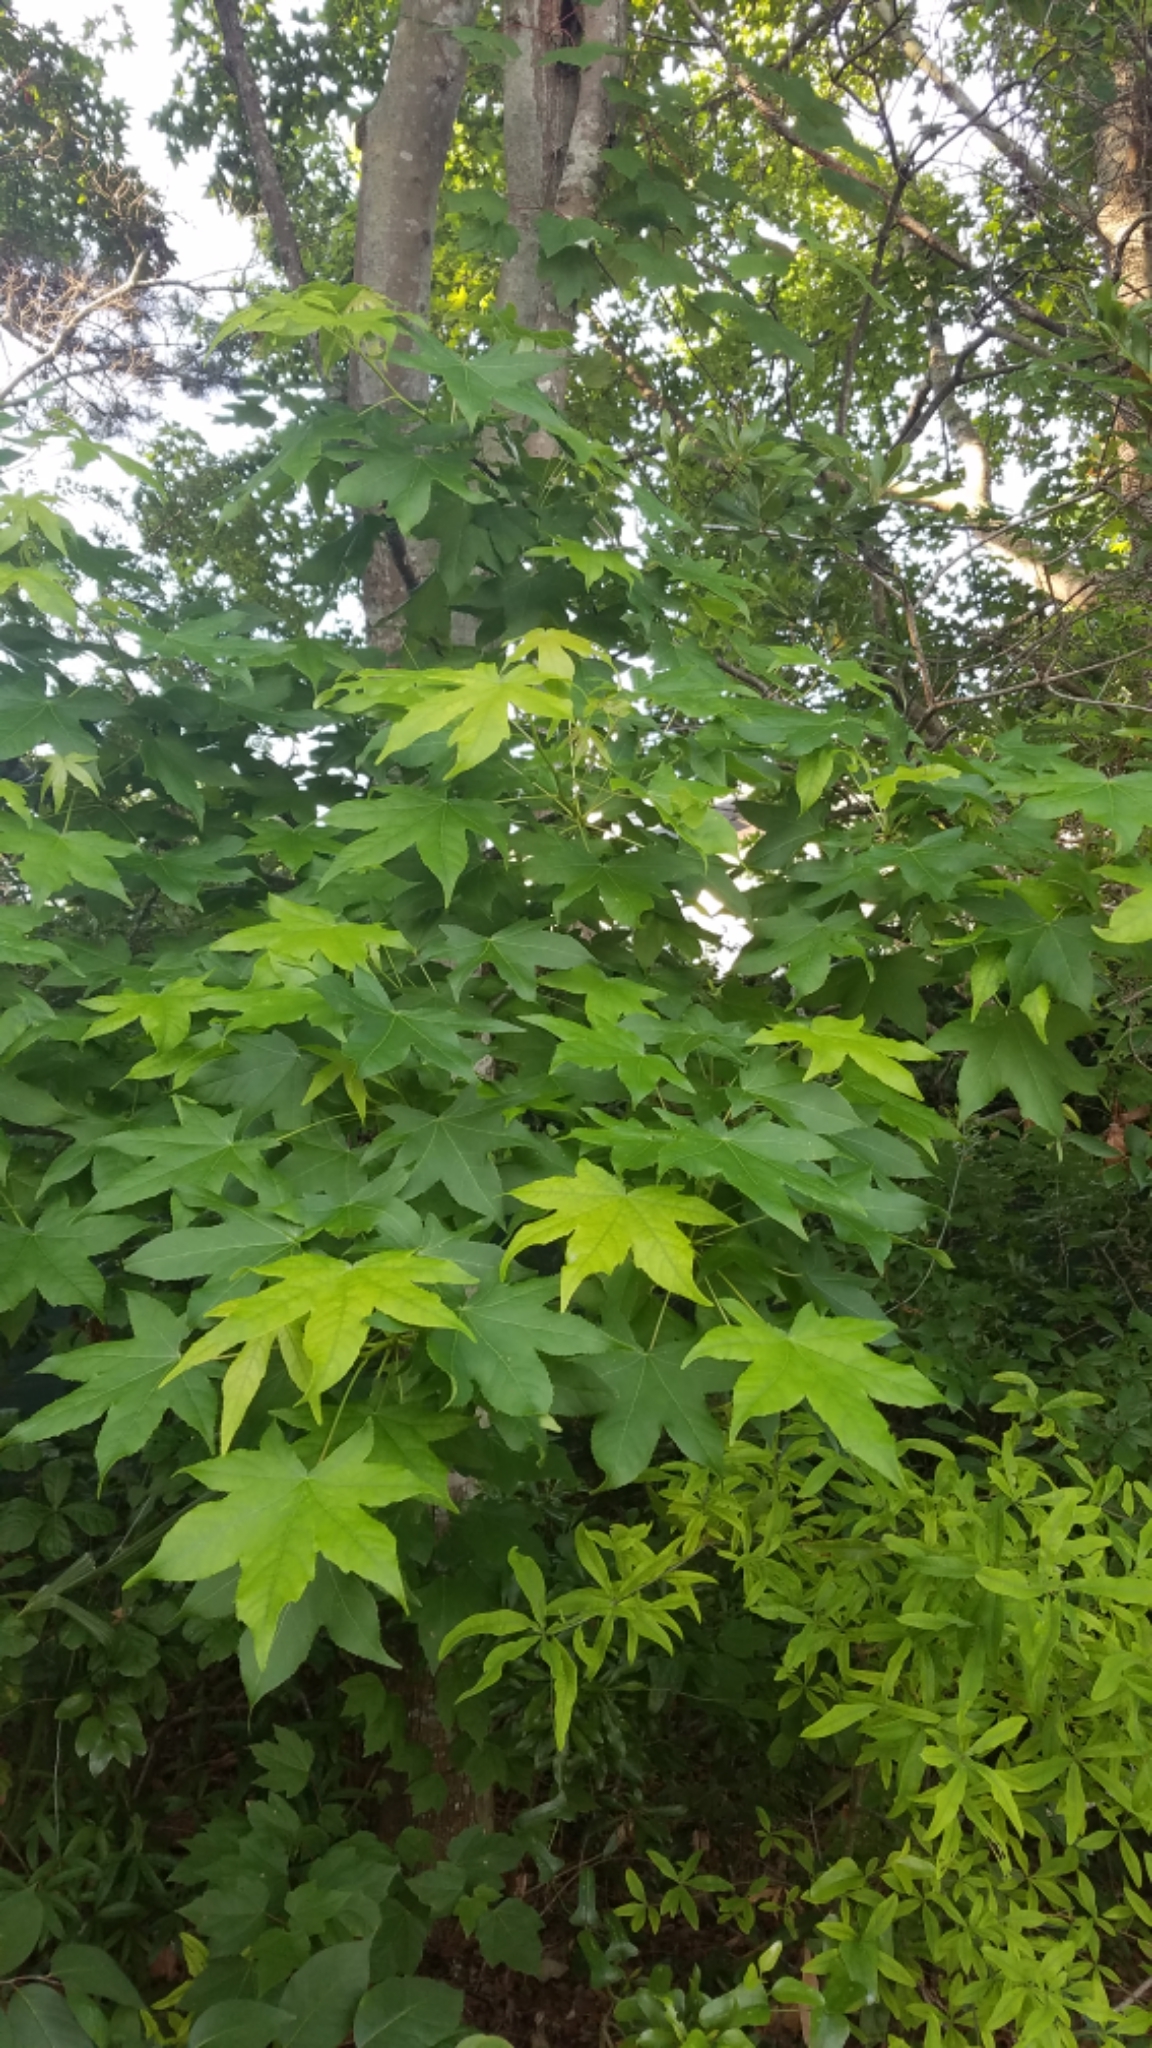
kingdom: Plantae
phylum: Tracheophyta
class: Magnoliopsida
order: Saxifragales
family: Altingiaceae
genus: Liquidambar
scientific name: Liquidambar styraciflua
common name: Sweet gum
